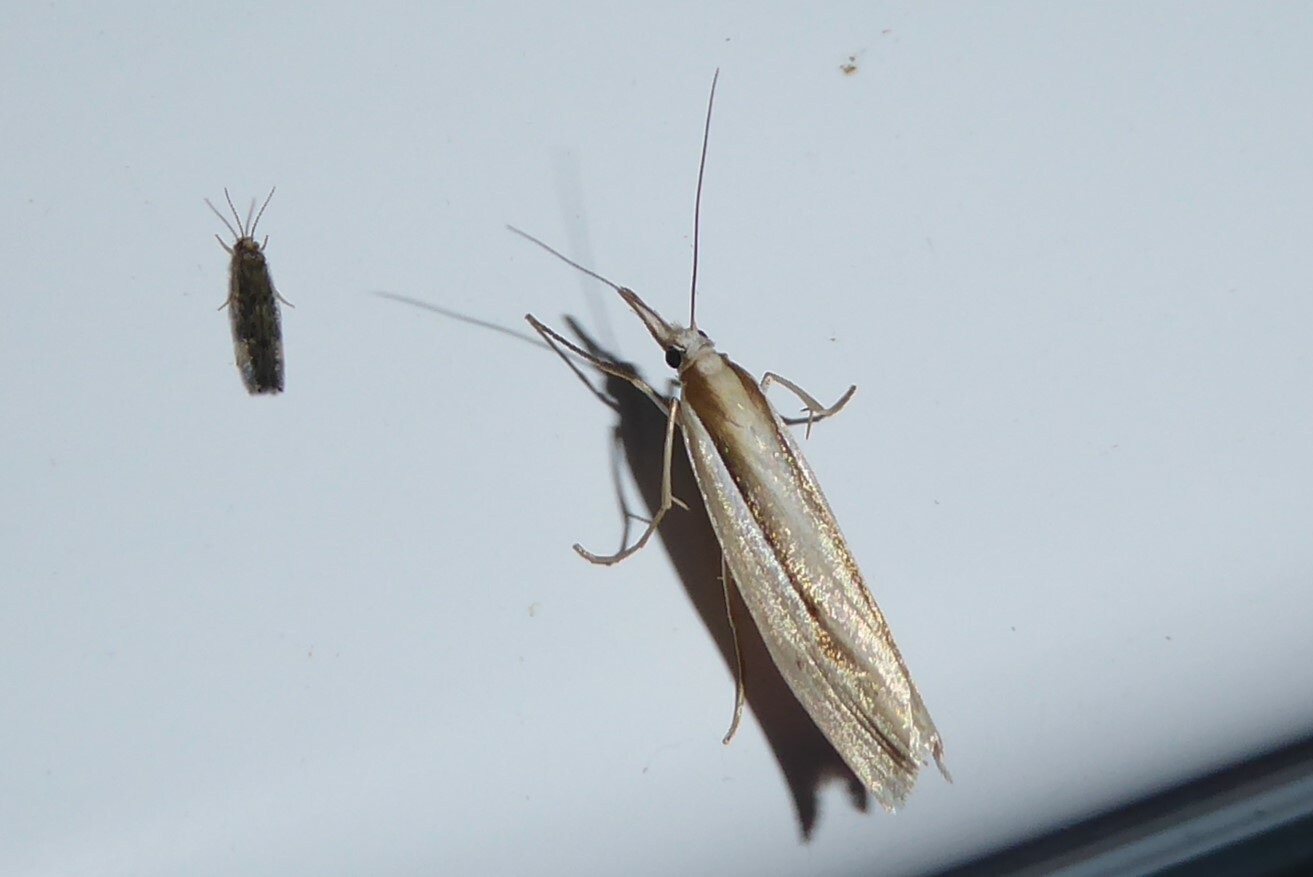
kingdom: Animalia
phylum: Arthropoda
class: Insecta
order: Lepidoptera
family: Crambidae
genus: Orocrambus
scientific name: Orocrambus ramosellus
